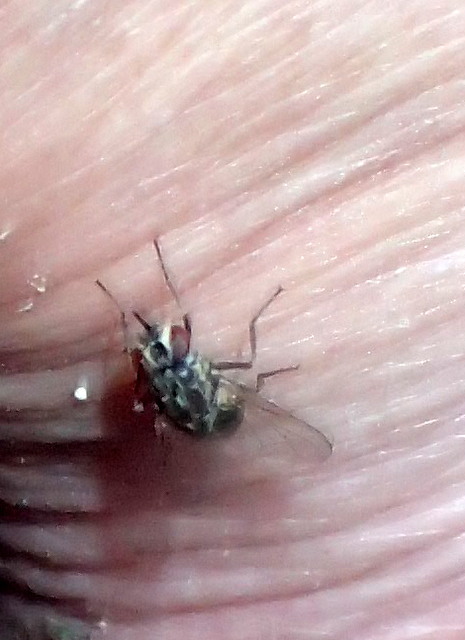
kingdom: Animalia
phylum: Arthropoda
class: Insecta
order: Diptera
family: Muscidae
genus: Stomoxys
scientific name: Stomoxys calcitrans
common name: Stable fly
